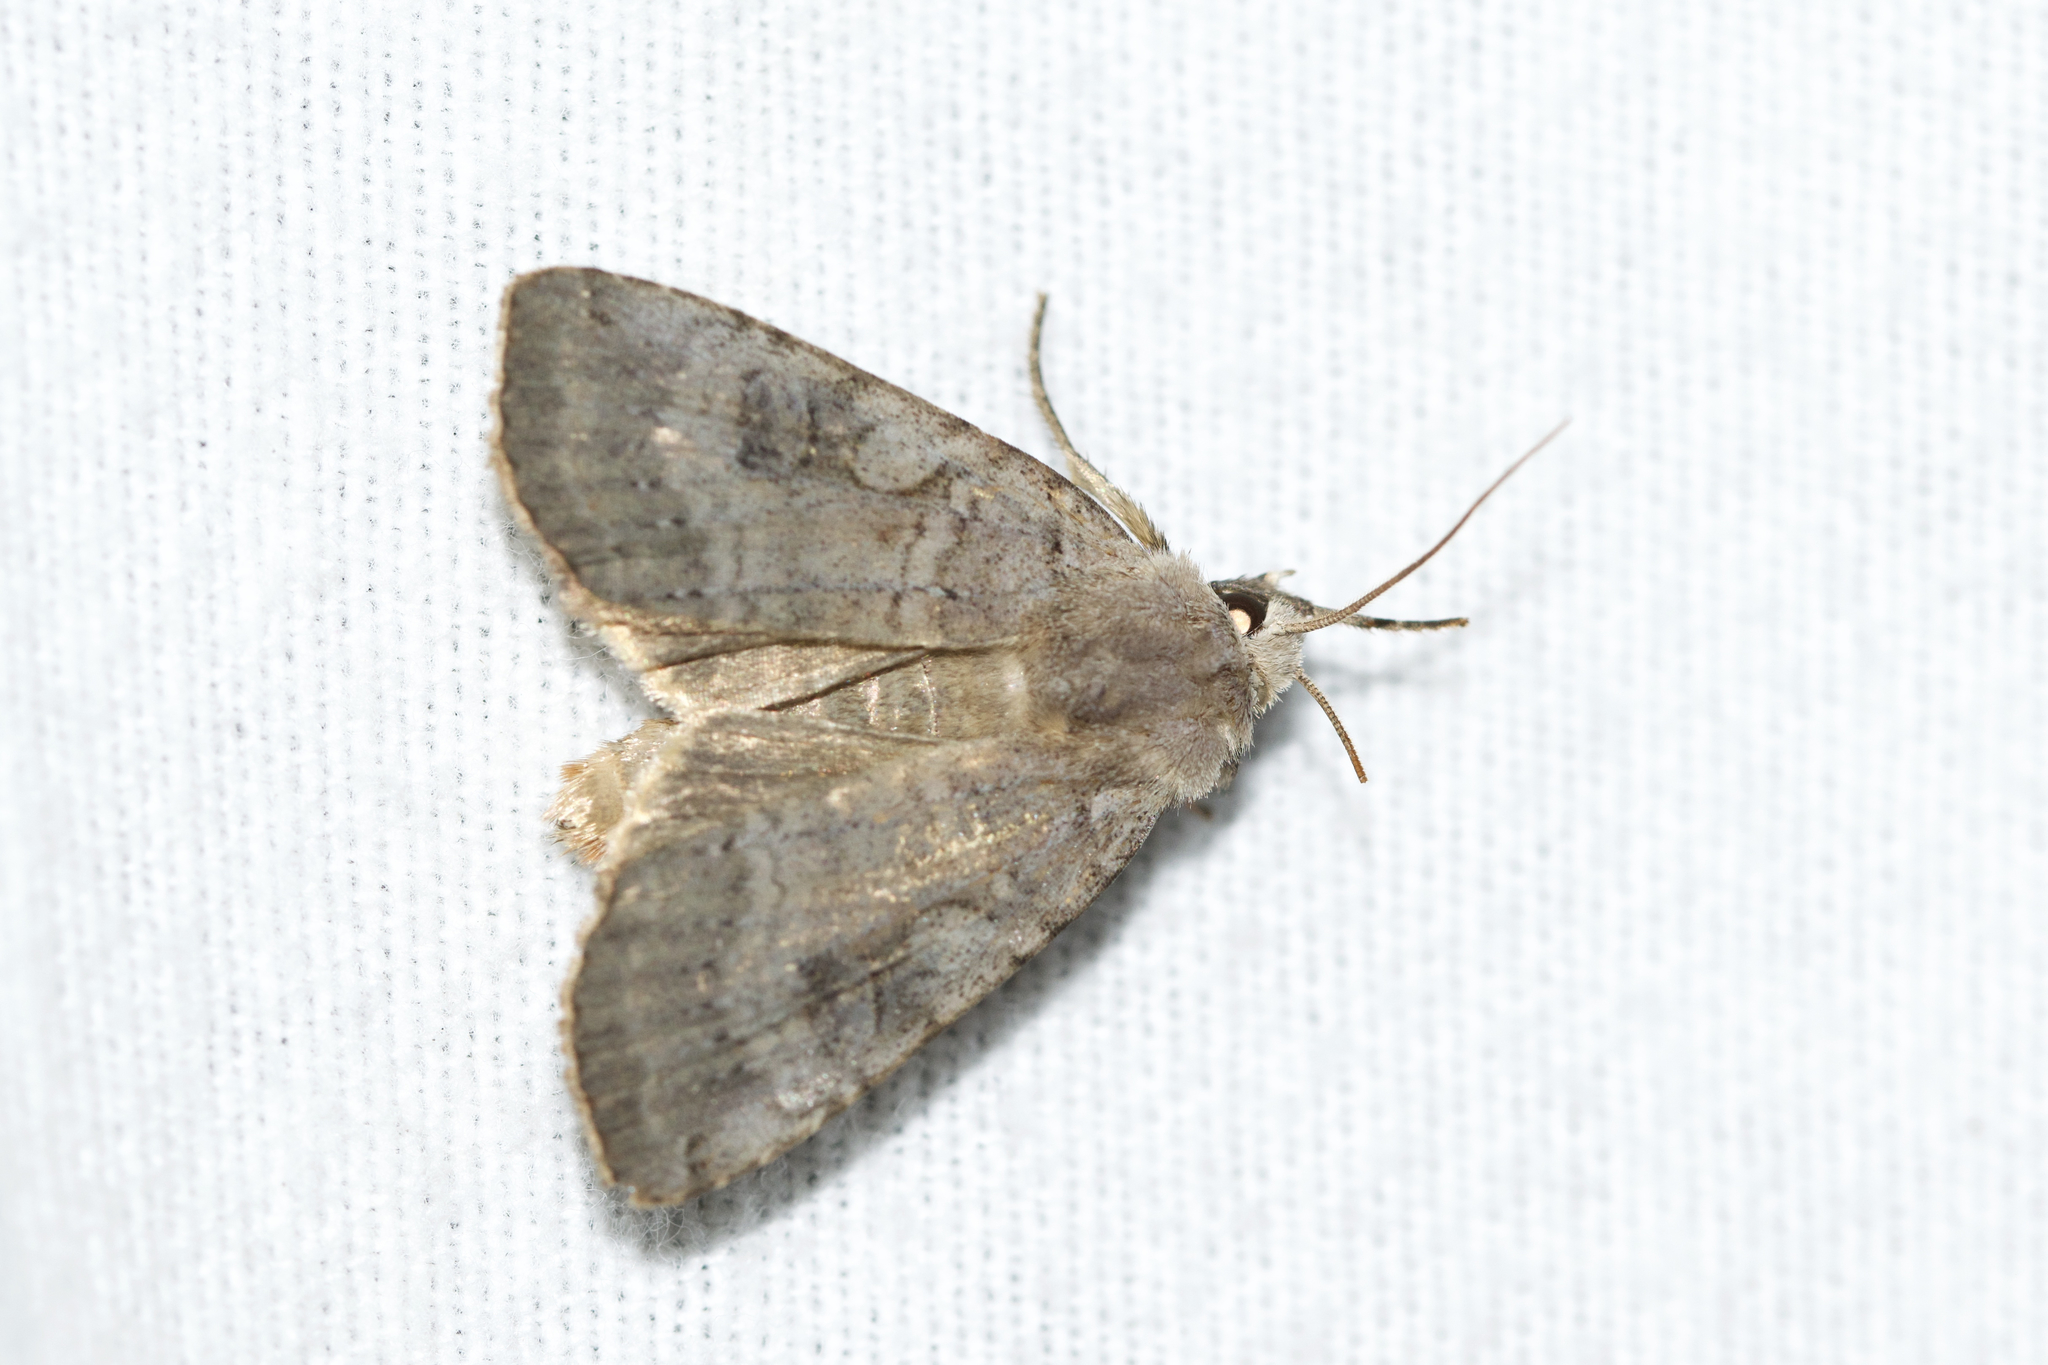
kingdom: Animalia
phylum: Arthropoda
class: Insecta
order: Lepidoptera
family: Noctuidae
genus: Xestia
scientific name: Xestia smithii
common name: Smith's dart
